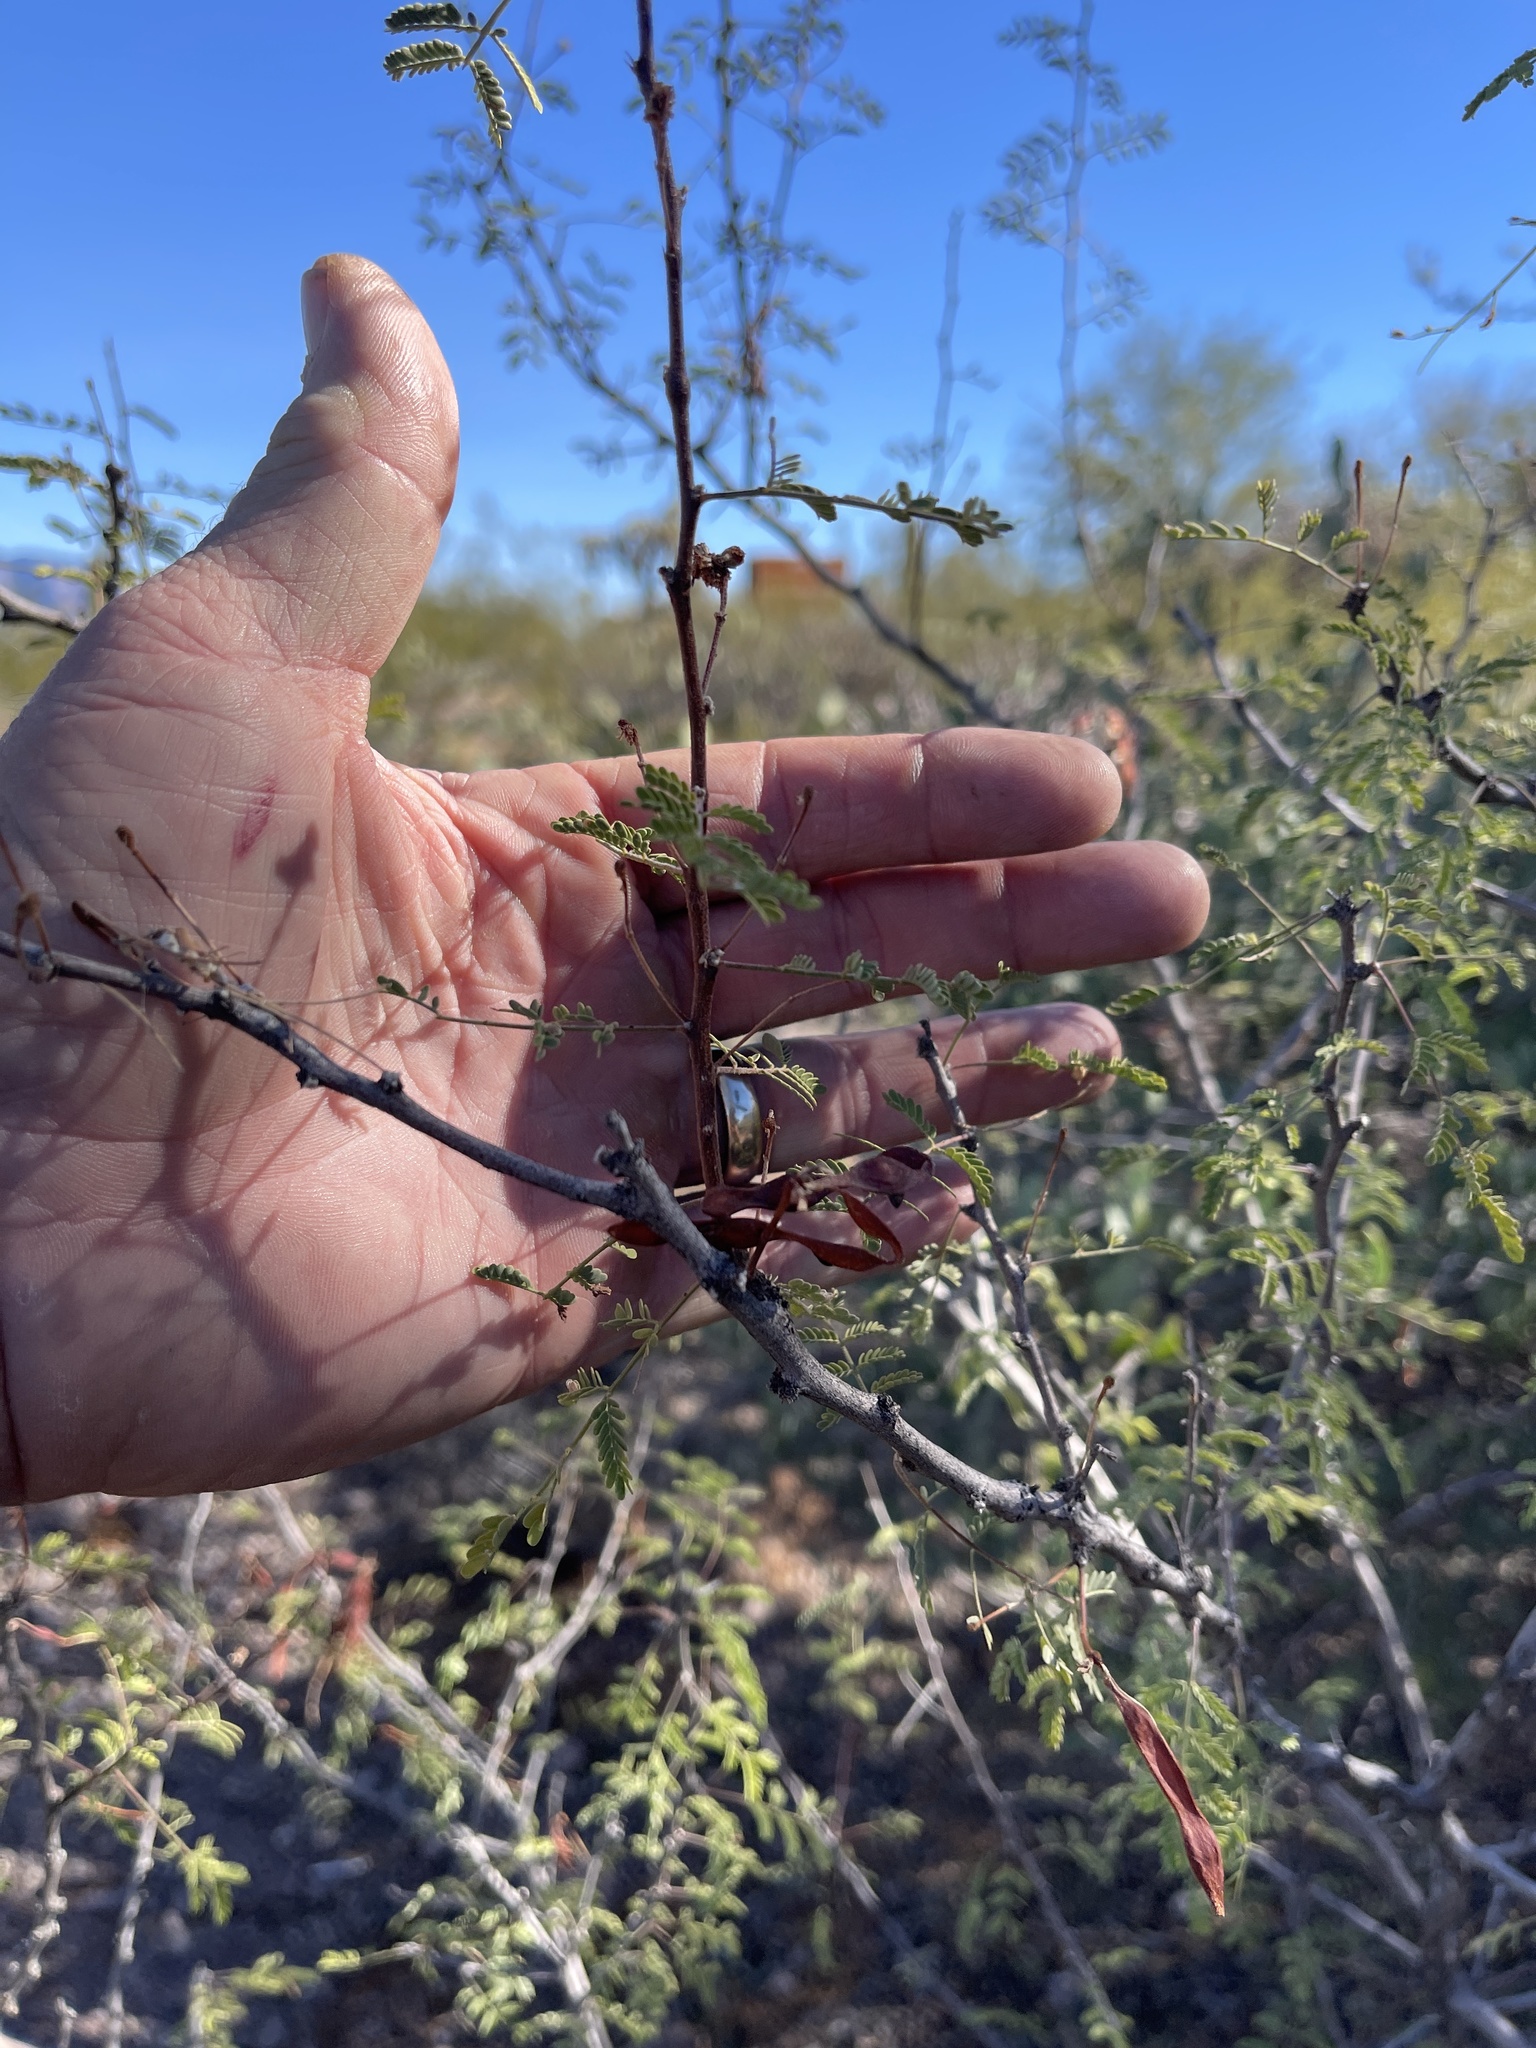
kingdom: Plantae
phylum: Tracheophyta
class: Magnoliopsida
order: Fabales
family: Fabaceae
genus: Vachellia
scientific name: Vachellia constricta
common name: Mescat acacia
